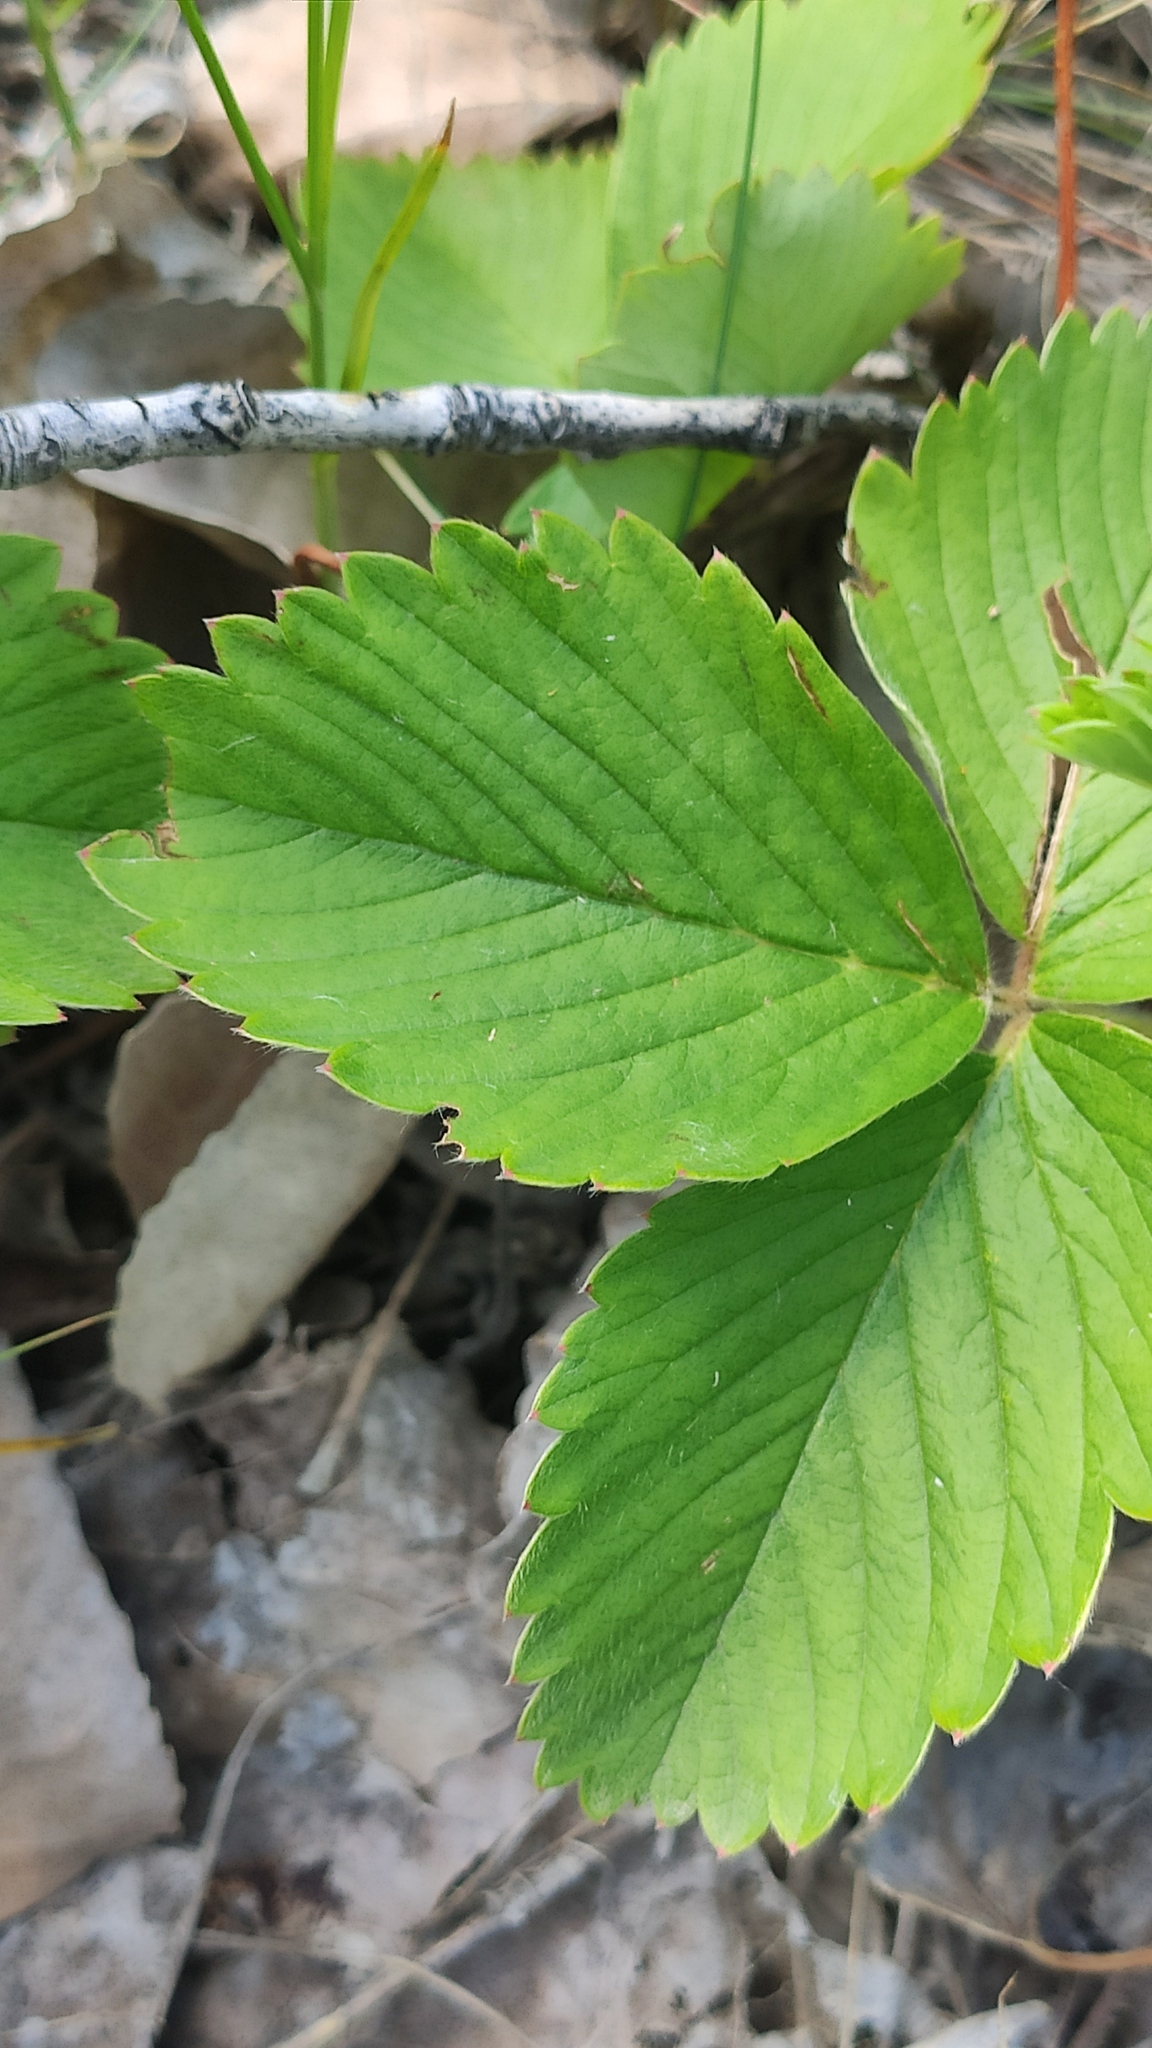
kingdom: Plantae
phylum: Tracheophyta
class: Magnoliopsida
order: Rosales
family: Rosaceae
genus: Fragaria
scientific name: Fragaria viridis
